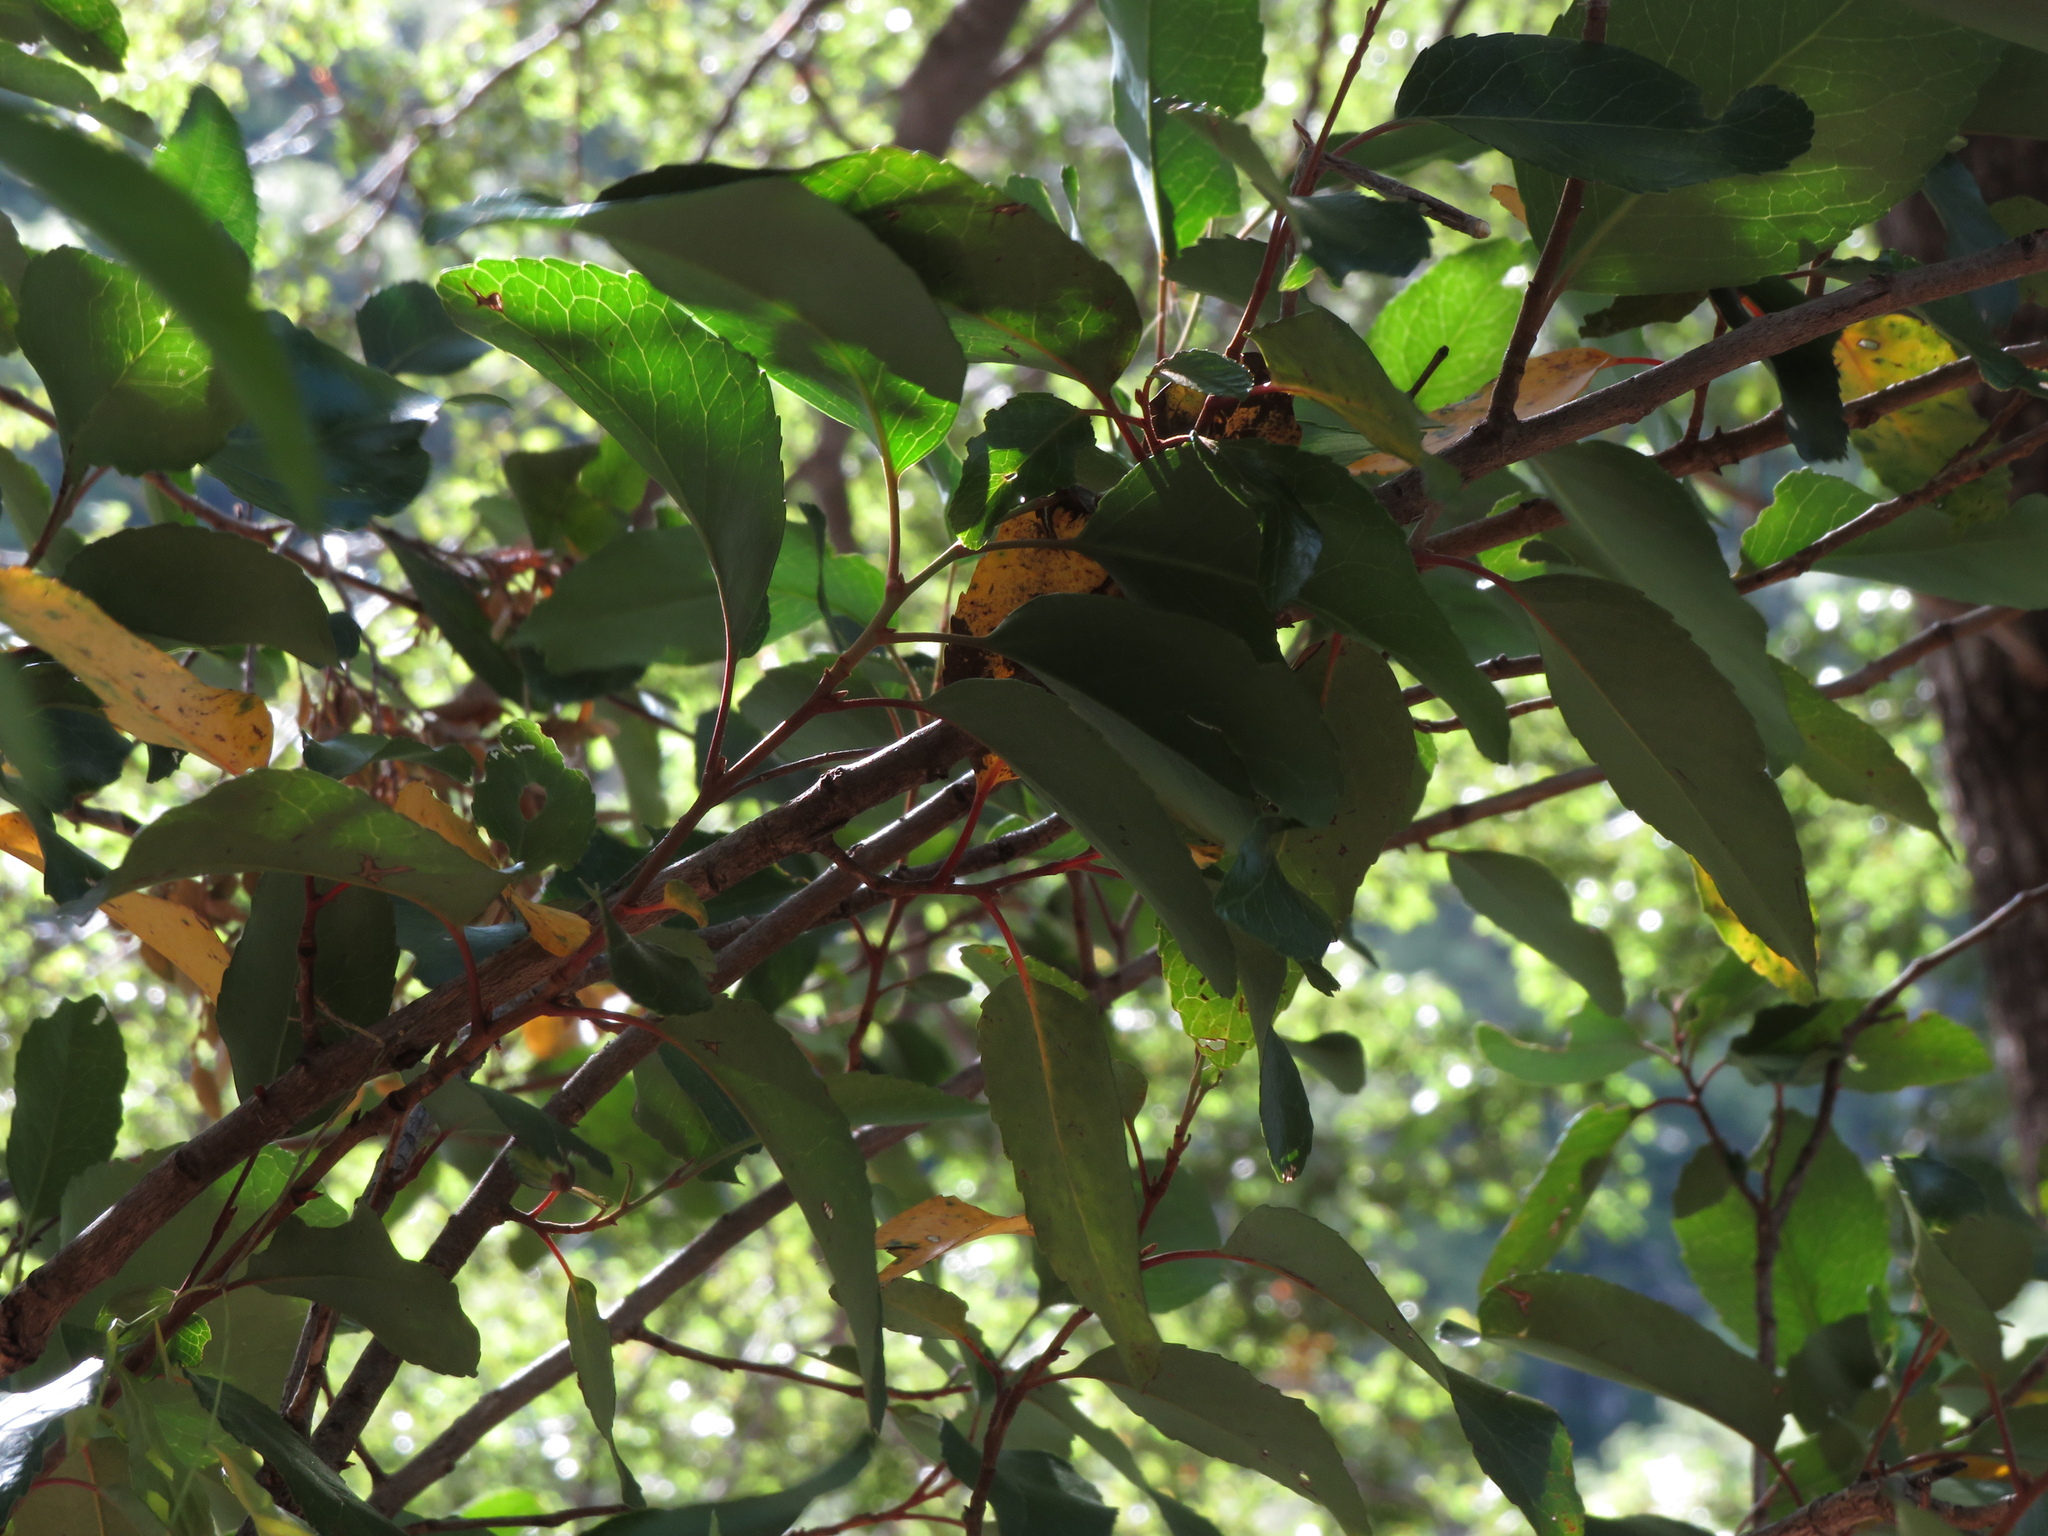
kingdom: Plantae
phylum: Tracheophyta
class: Magnoliopsida
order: Proteales
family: Proteaceae
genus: Lomatia
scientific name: Lomatia hirsuta
